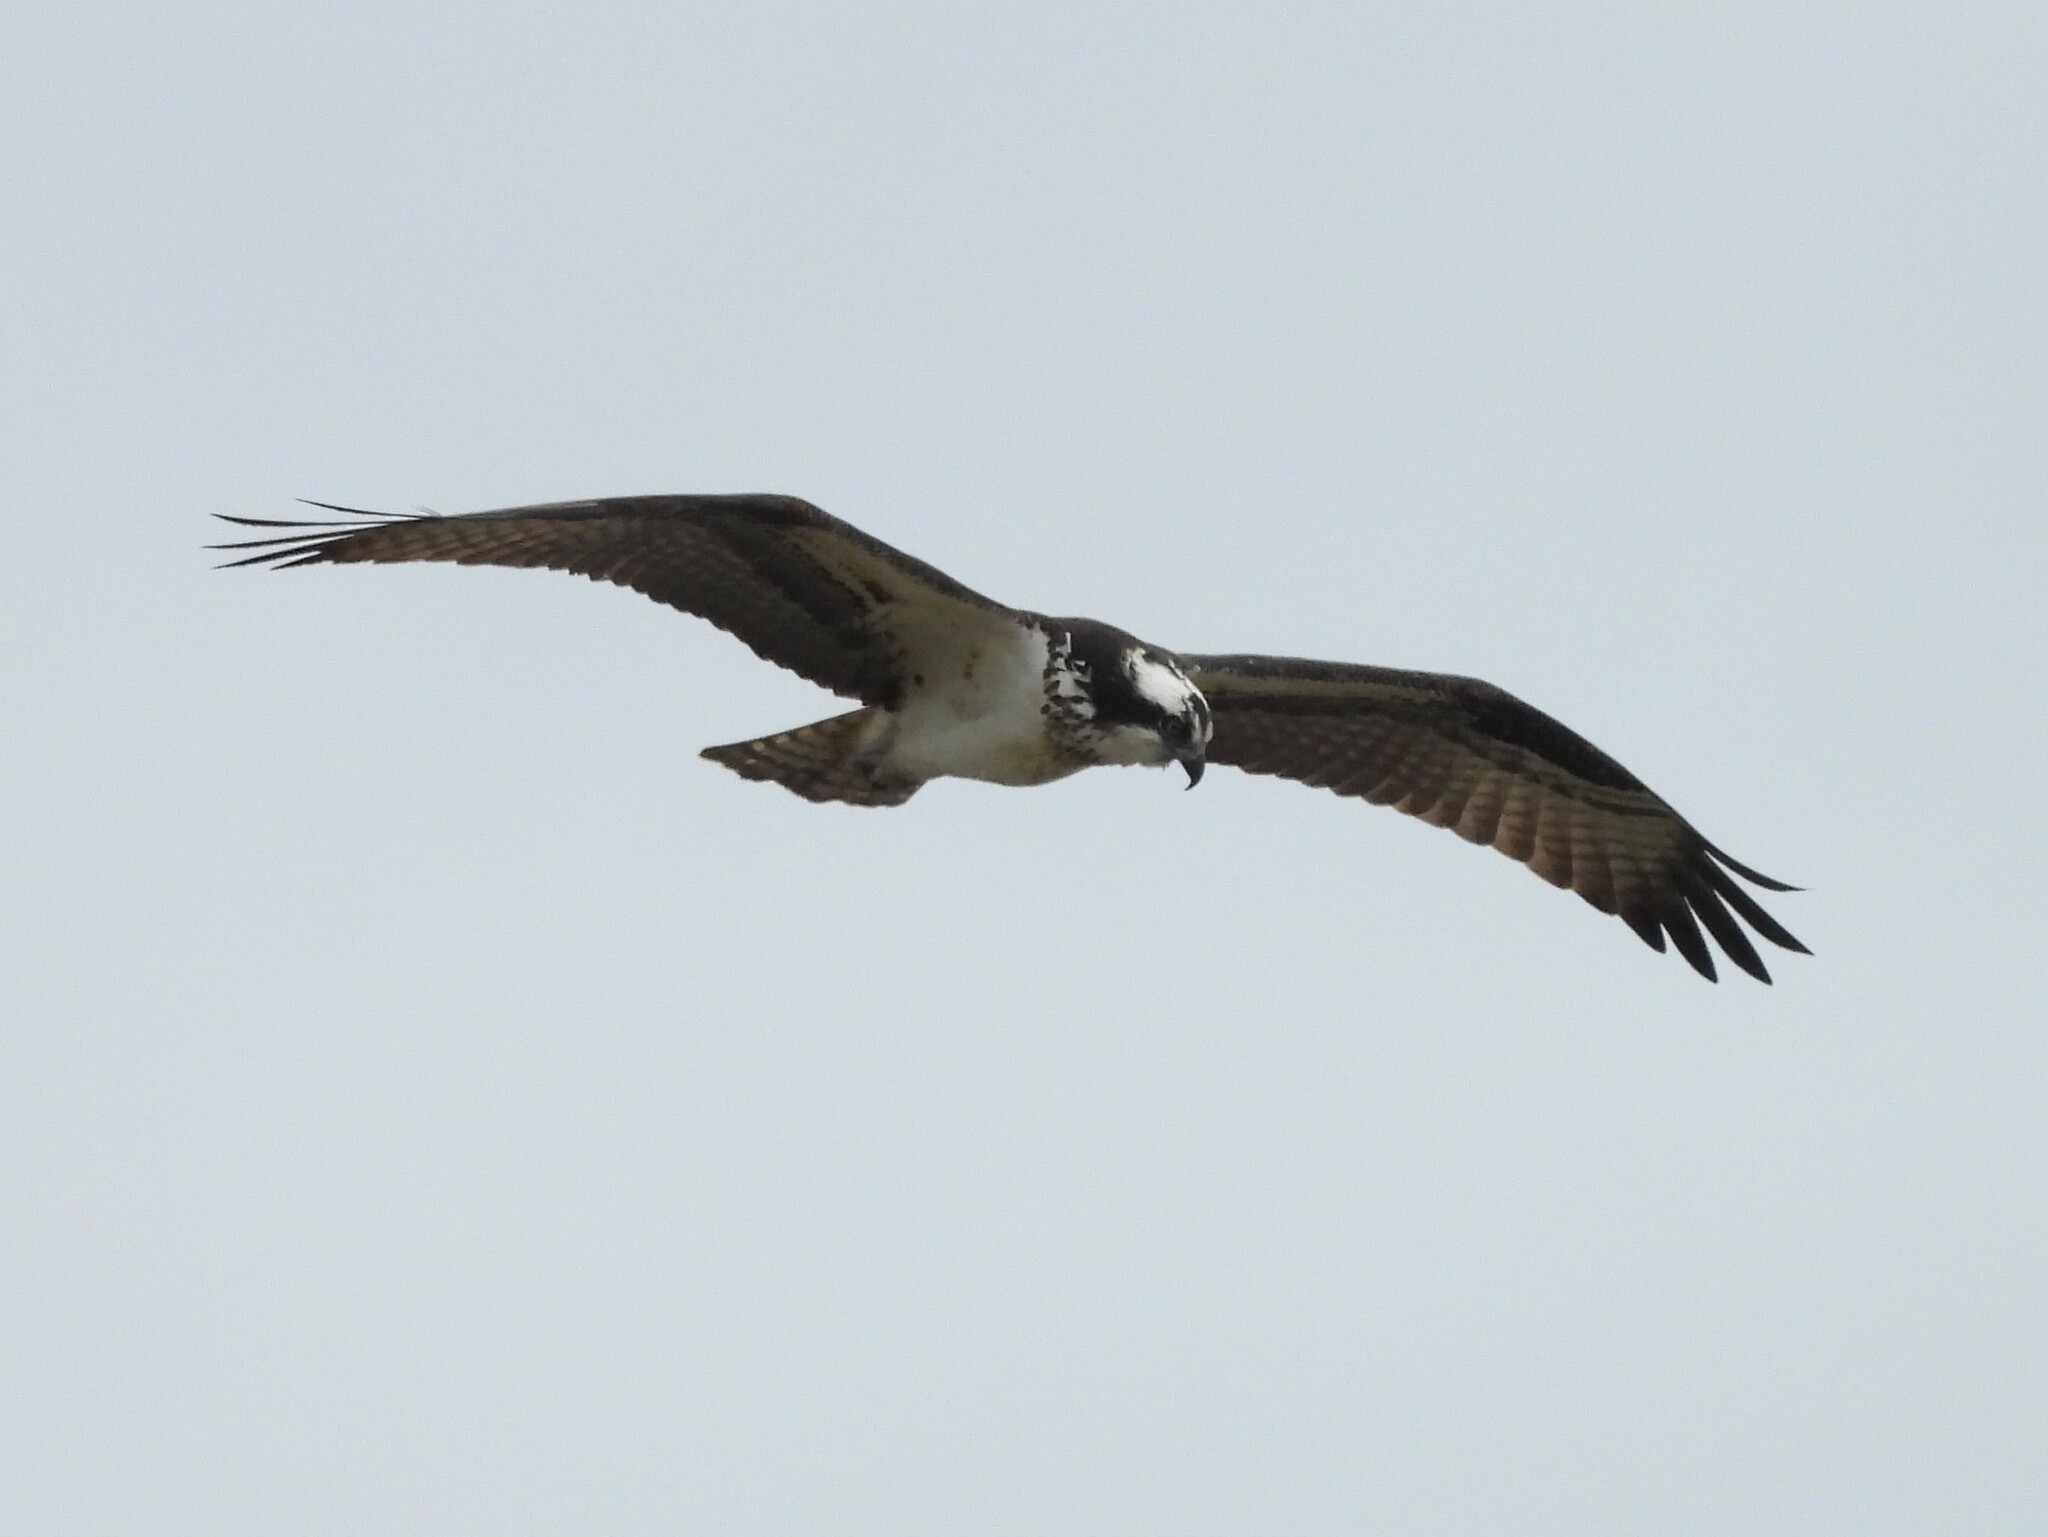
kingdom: Animalia
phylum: Chordata
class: Aves
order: Accipitriformes
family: Pandionidae
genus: Pandion
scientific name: Pandion haliaetus
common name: Osprey
